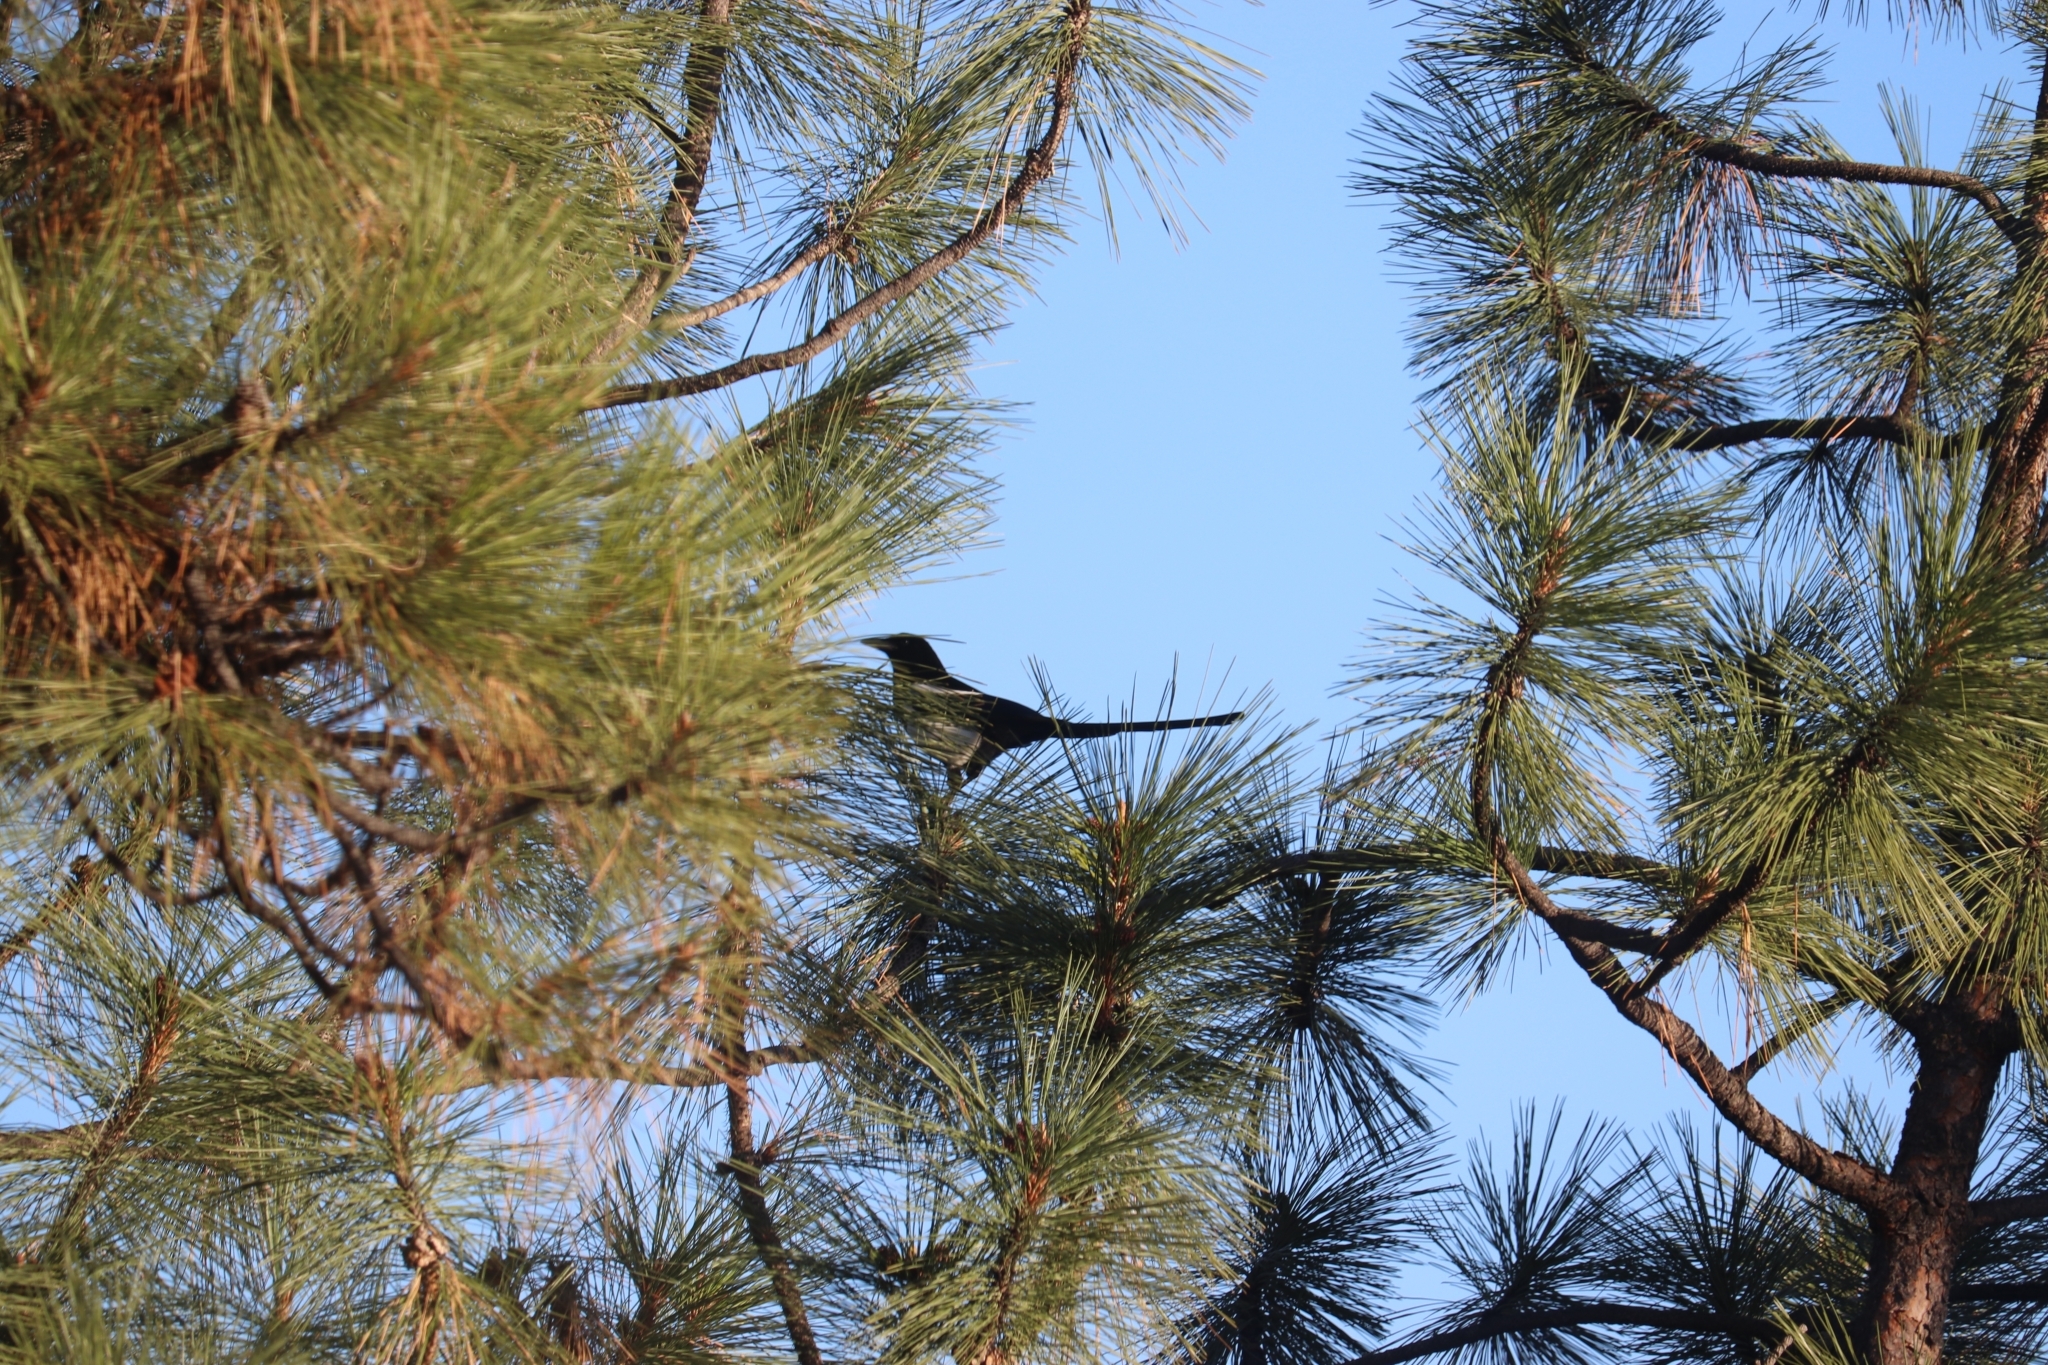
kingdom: Animalia
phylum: Chordata
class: Aves
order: Passeriformes
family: Corvidae
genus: Pica
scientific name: Pica hudsonia
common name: Black-billed magpie
